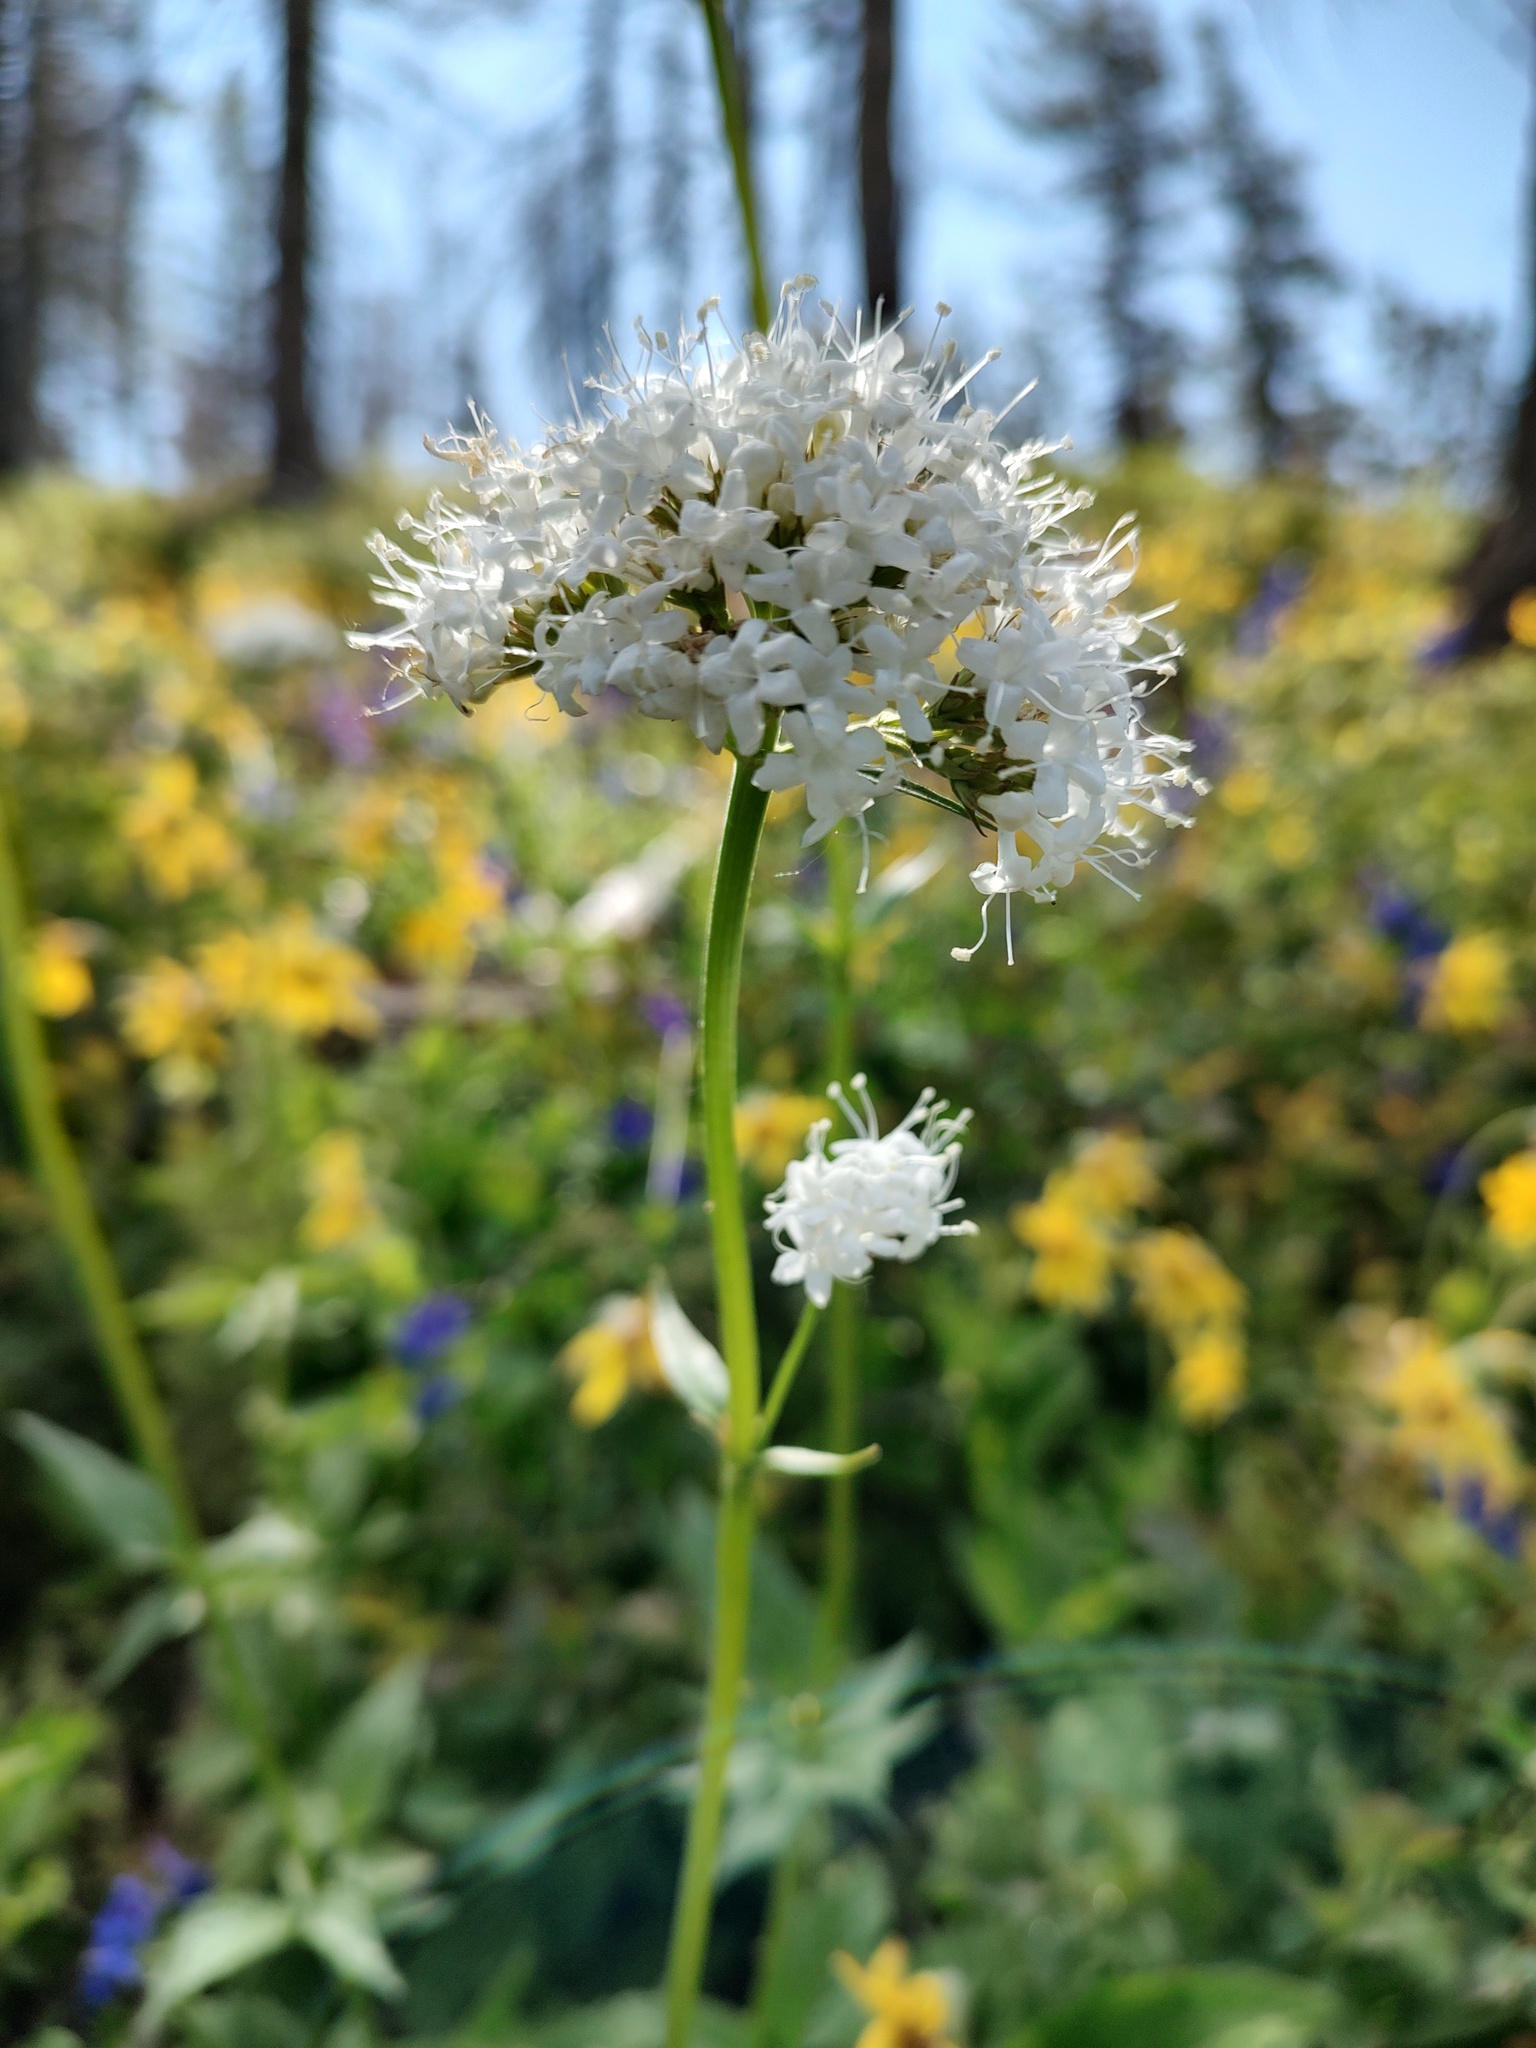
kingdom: Plantae
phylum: Tracheophyta
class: Magnoliopsida
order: Dipsacales
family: Caprifoliaceae
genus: Valeriana
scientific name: Valeriana sitchensis
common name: Pacific valerian
